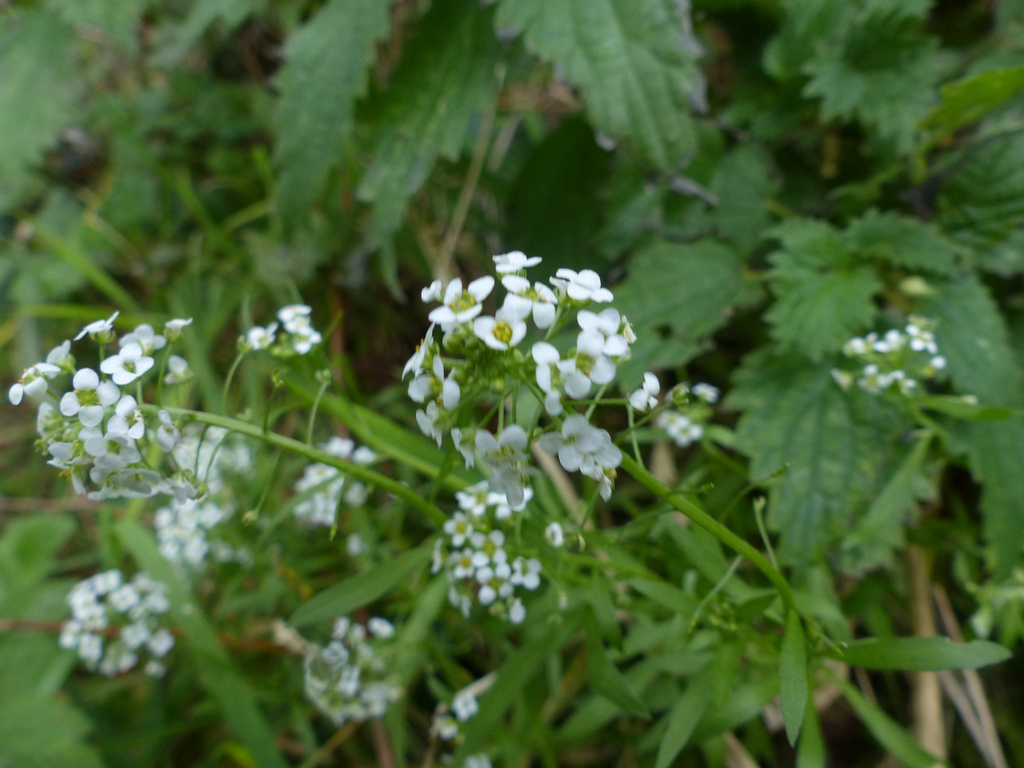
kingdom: Plantae
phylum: Tracheophyta
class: Magnoliopsida
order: Brassicales
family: Brassicaceae
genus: Lobularia
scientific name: Lobularia maritima
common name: Sweet alison
